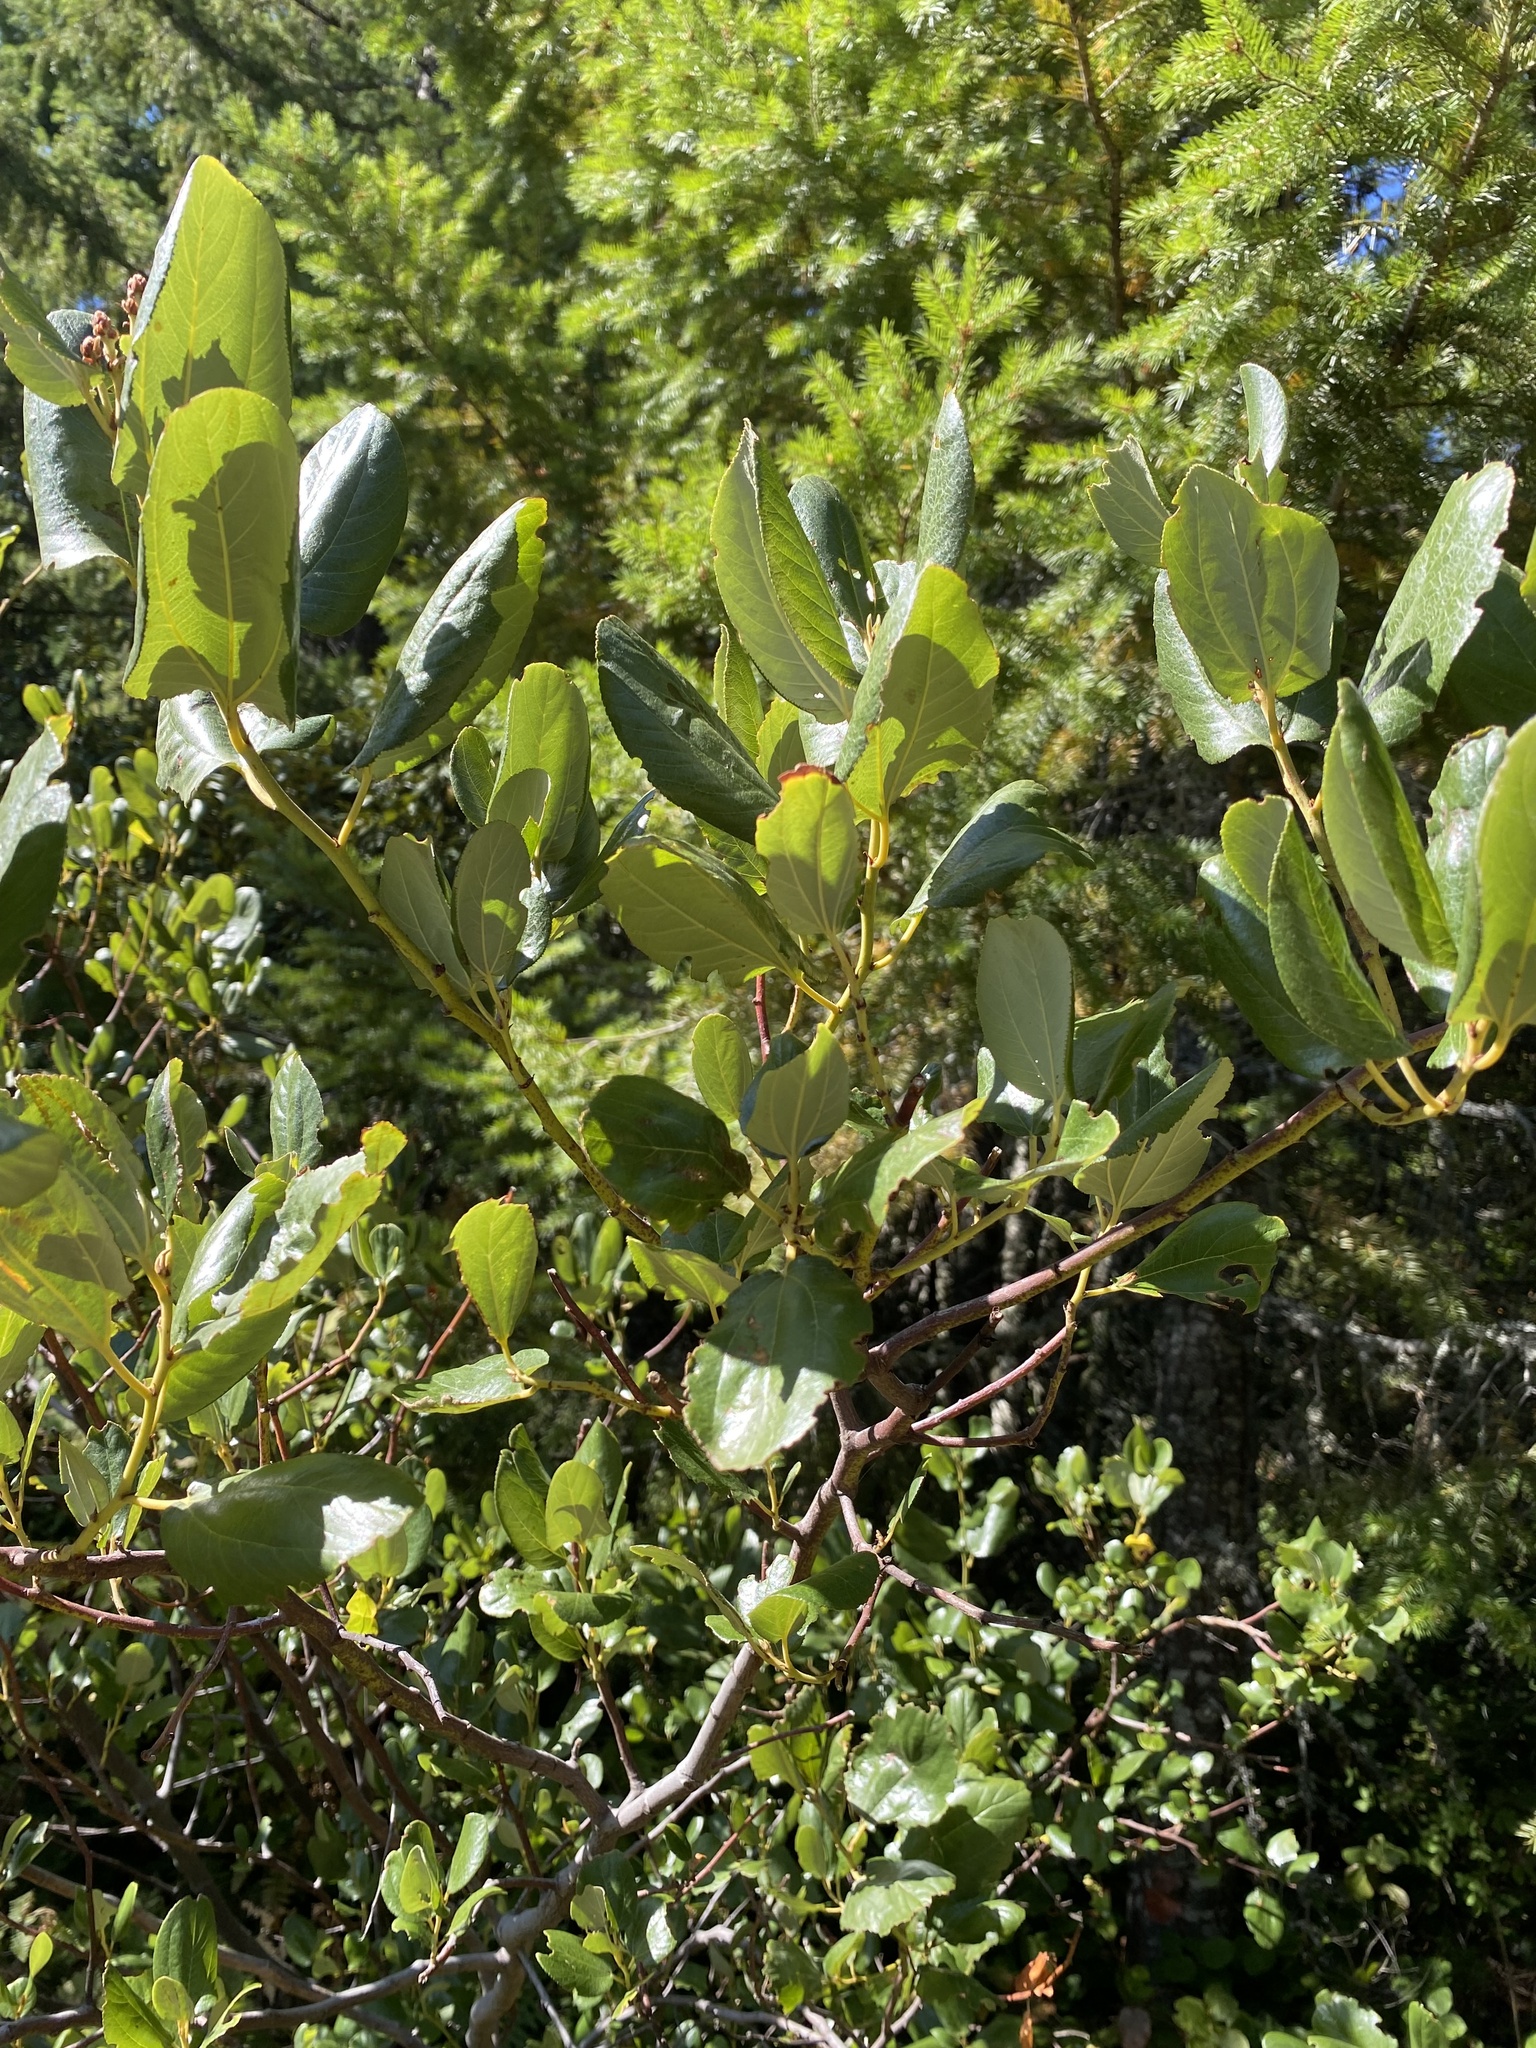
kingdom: Plantae
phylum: Tracheophyta
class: Magnoliopsida
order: Rosales
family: Rhamnaceae
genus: Ceanothus
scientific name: Ceanothus velutinus
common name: Snowbrush
